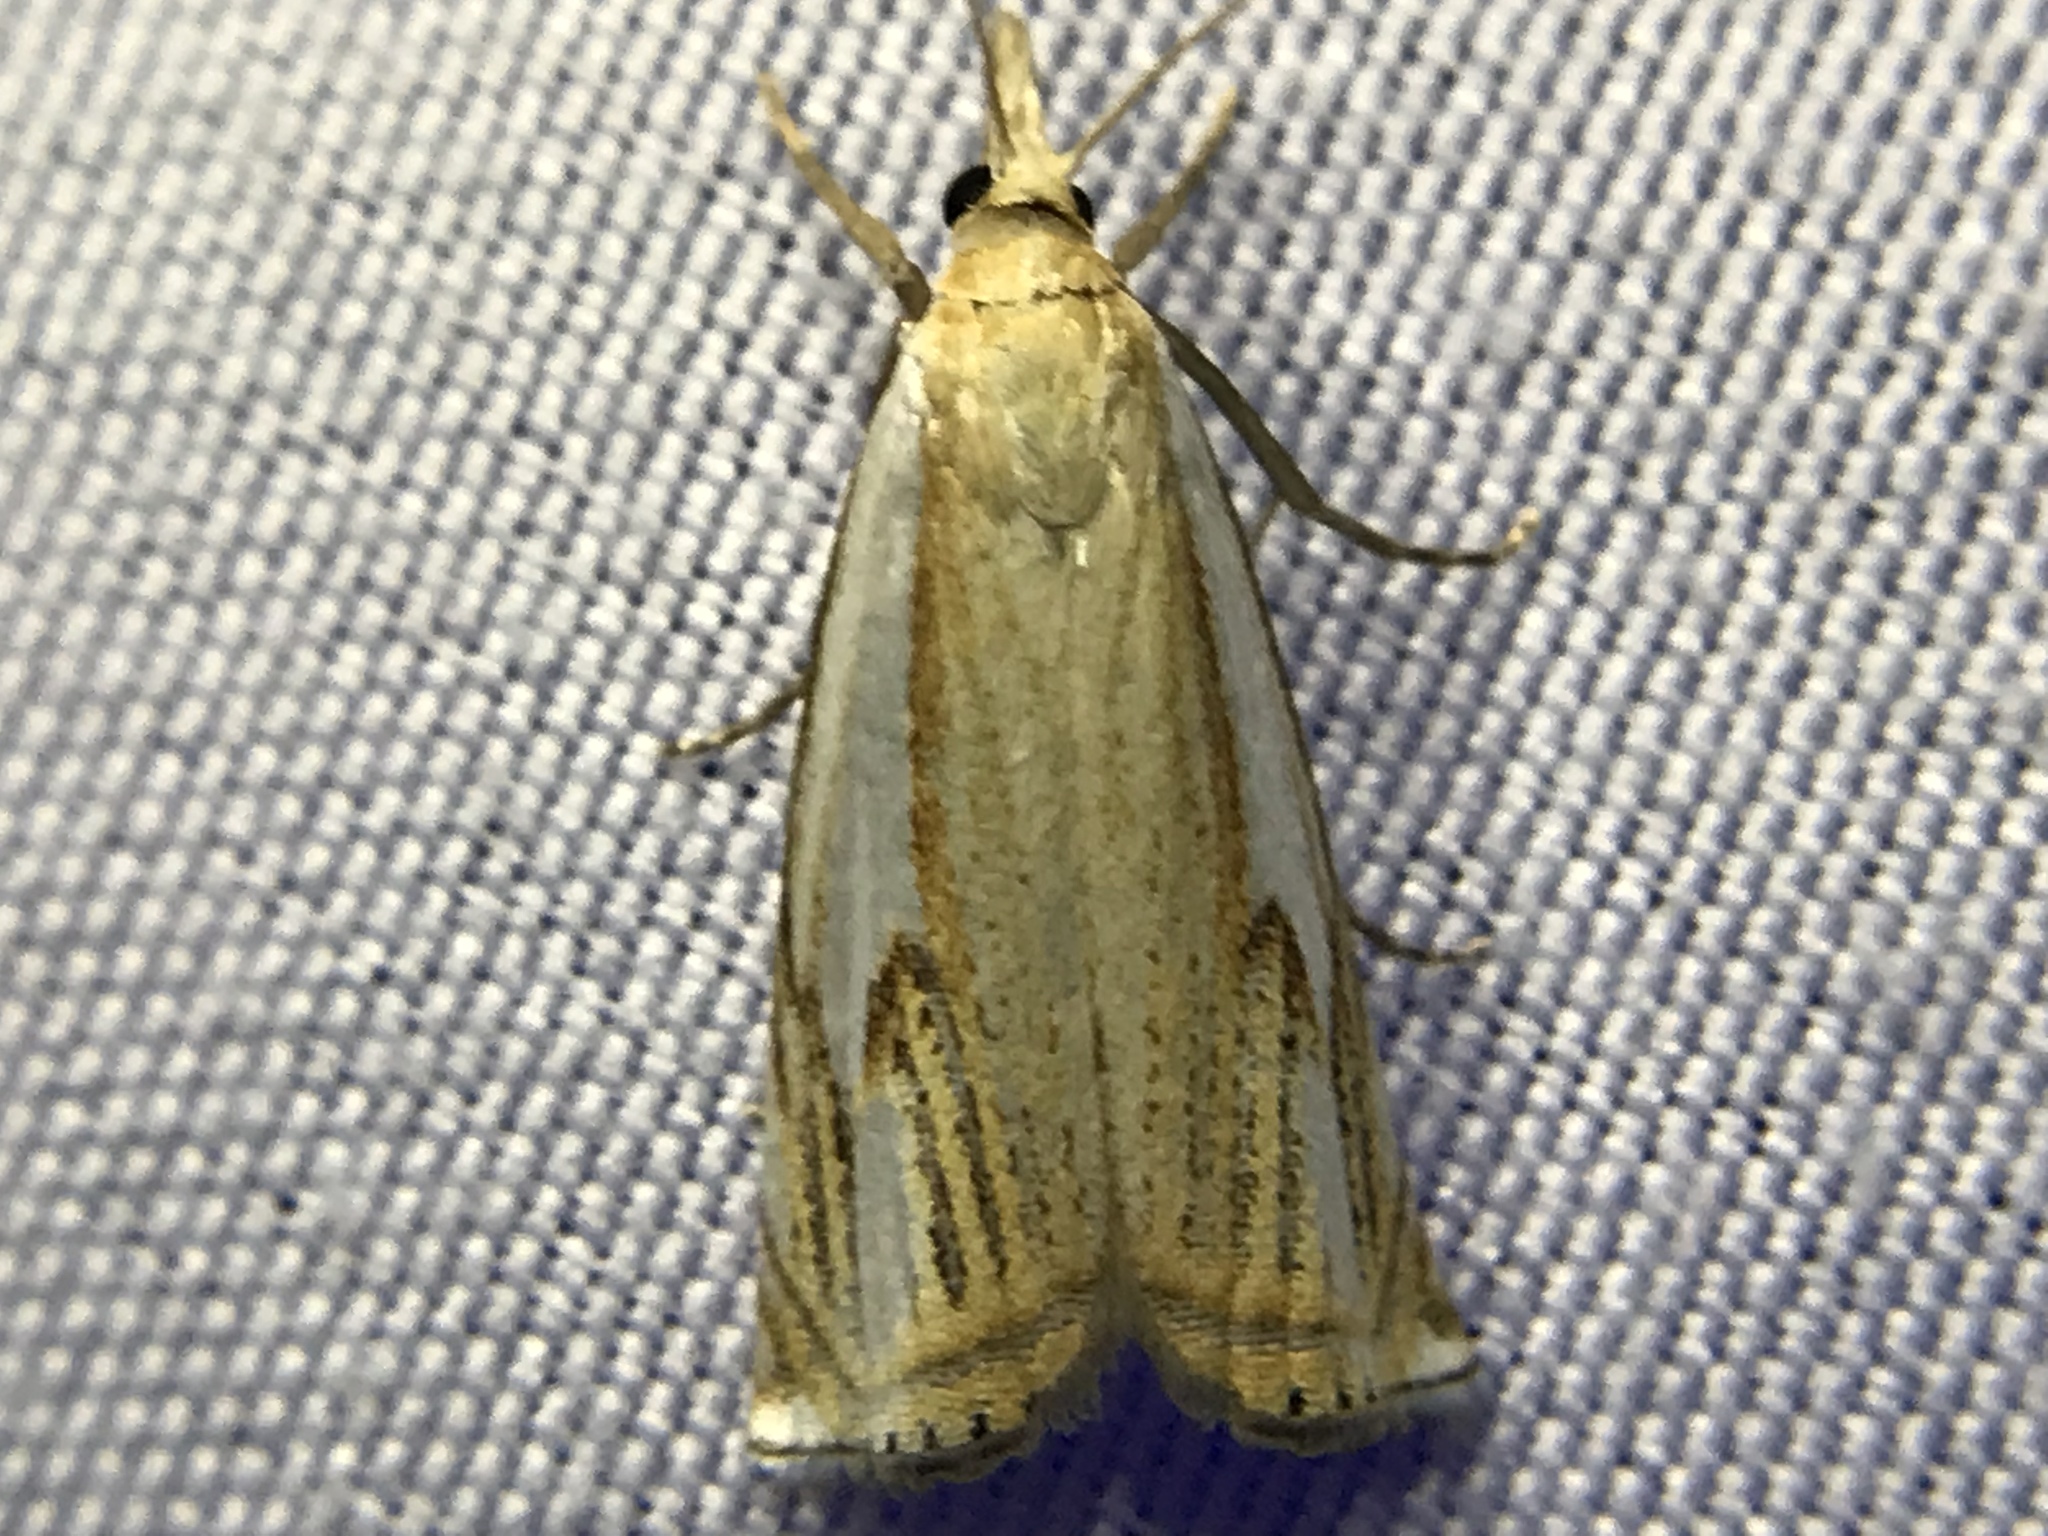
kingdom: Animalia
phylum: Arthropoda
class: Insecta
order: Lepidoptera
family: Crambidae
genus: Crambus
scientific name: Crambus
